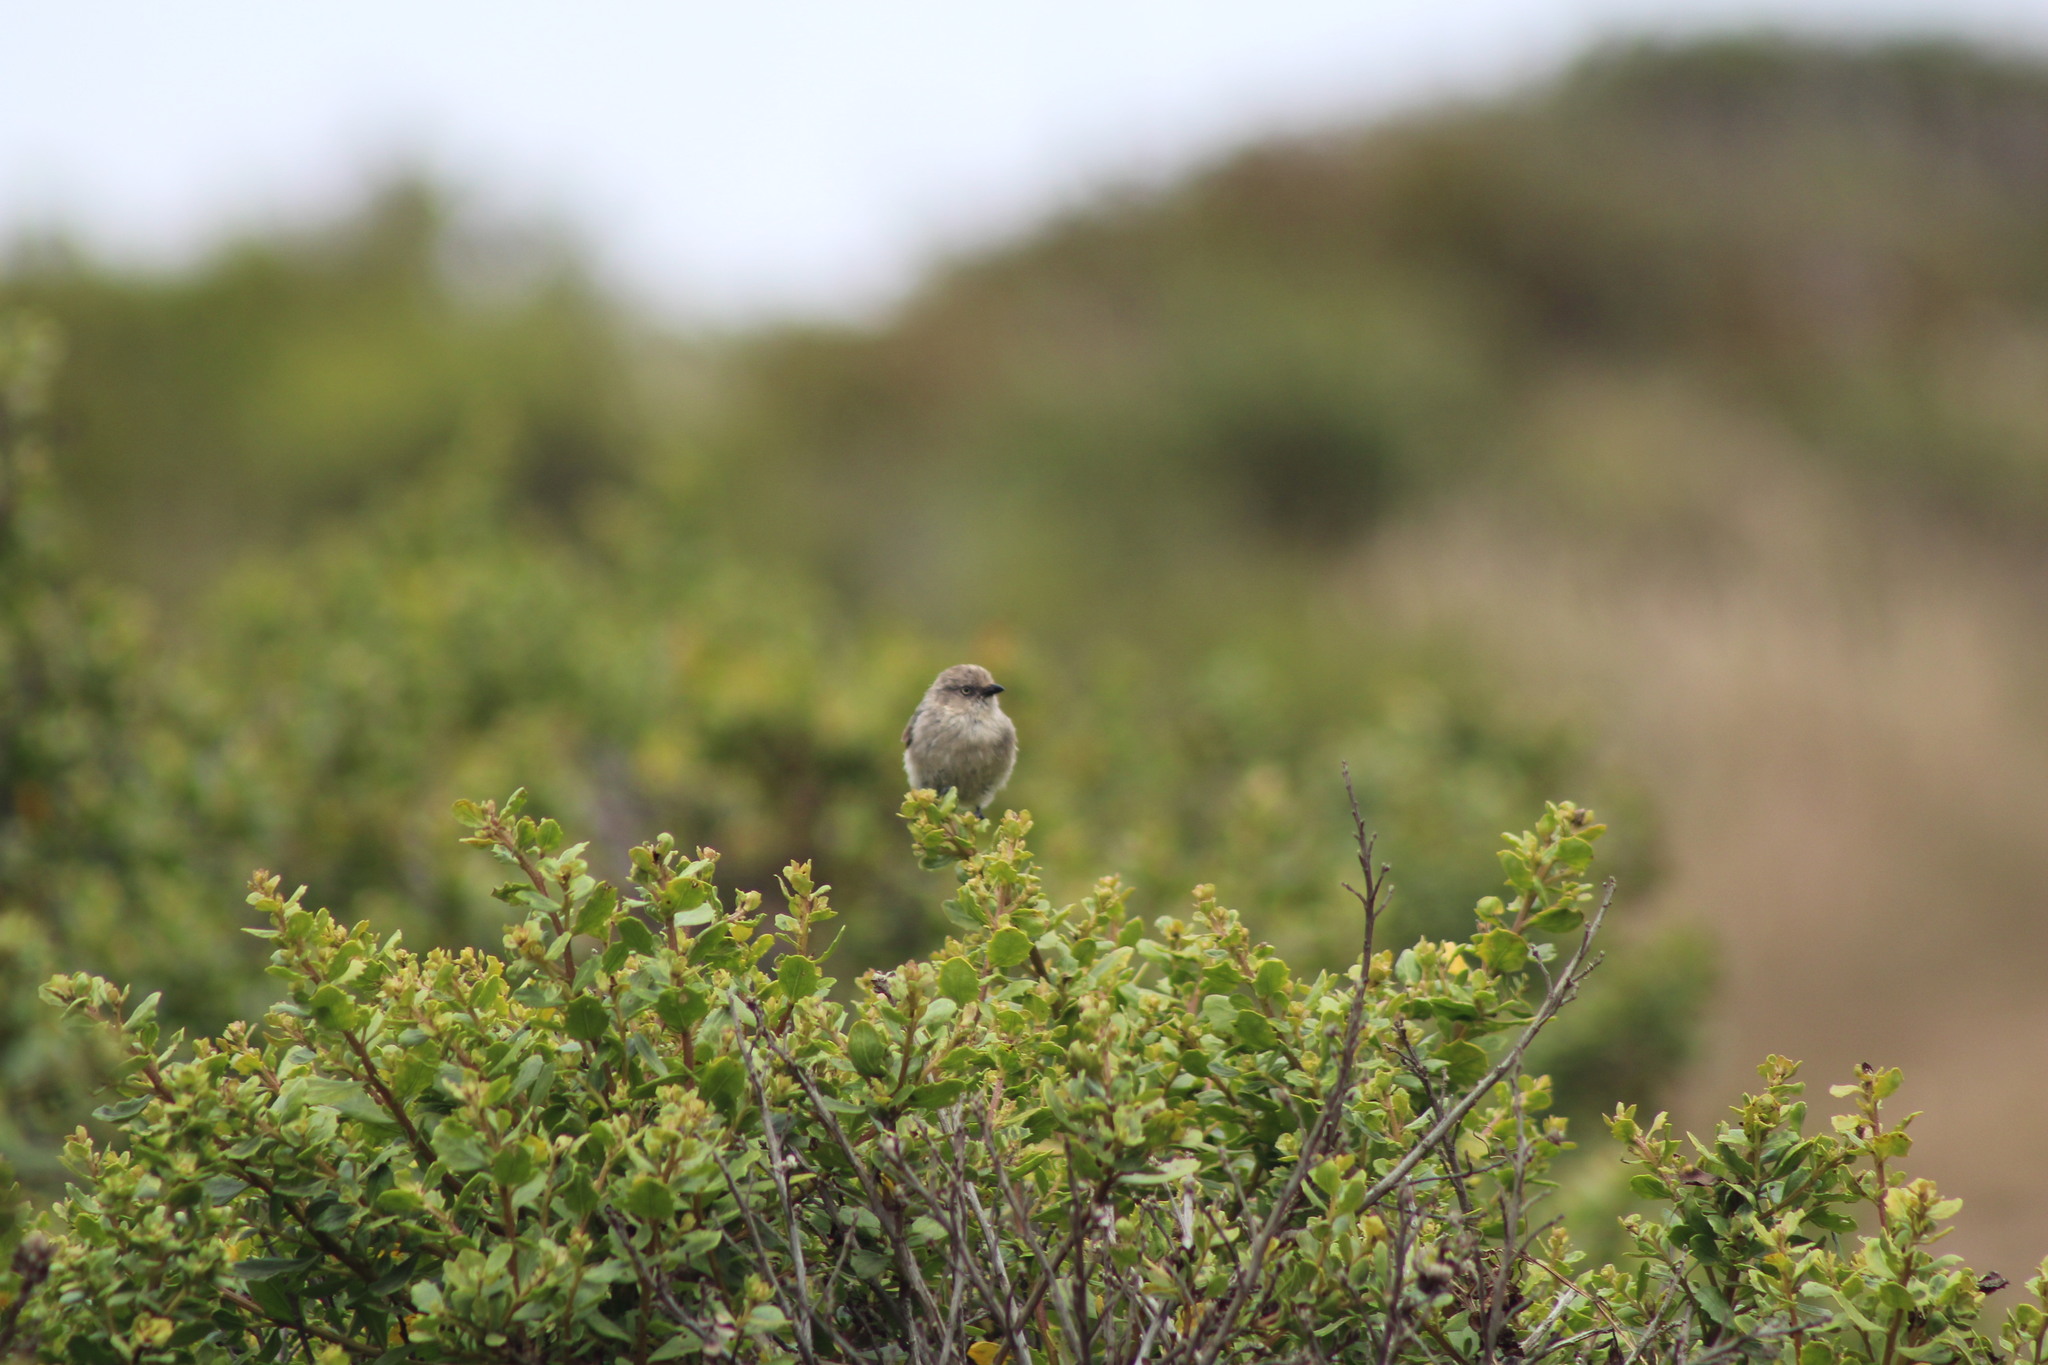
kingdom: Animalia
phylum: Chordata
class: Aves
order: Passeriformes
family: Aegithalidae
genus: Psaltriparus
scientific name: Psaltriparus minimus
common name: American bushtit
